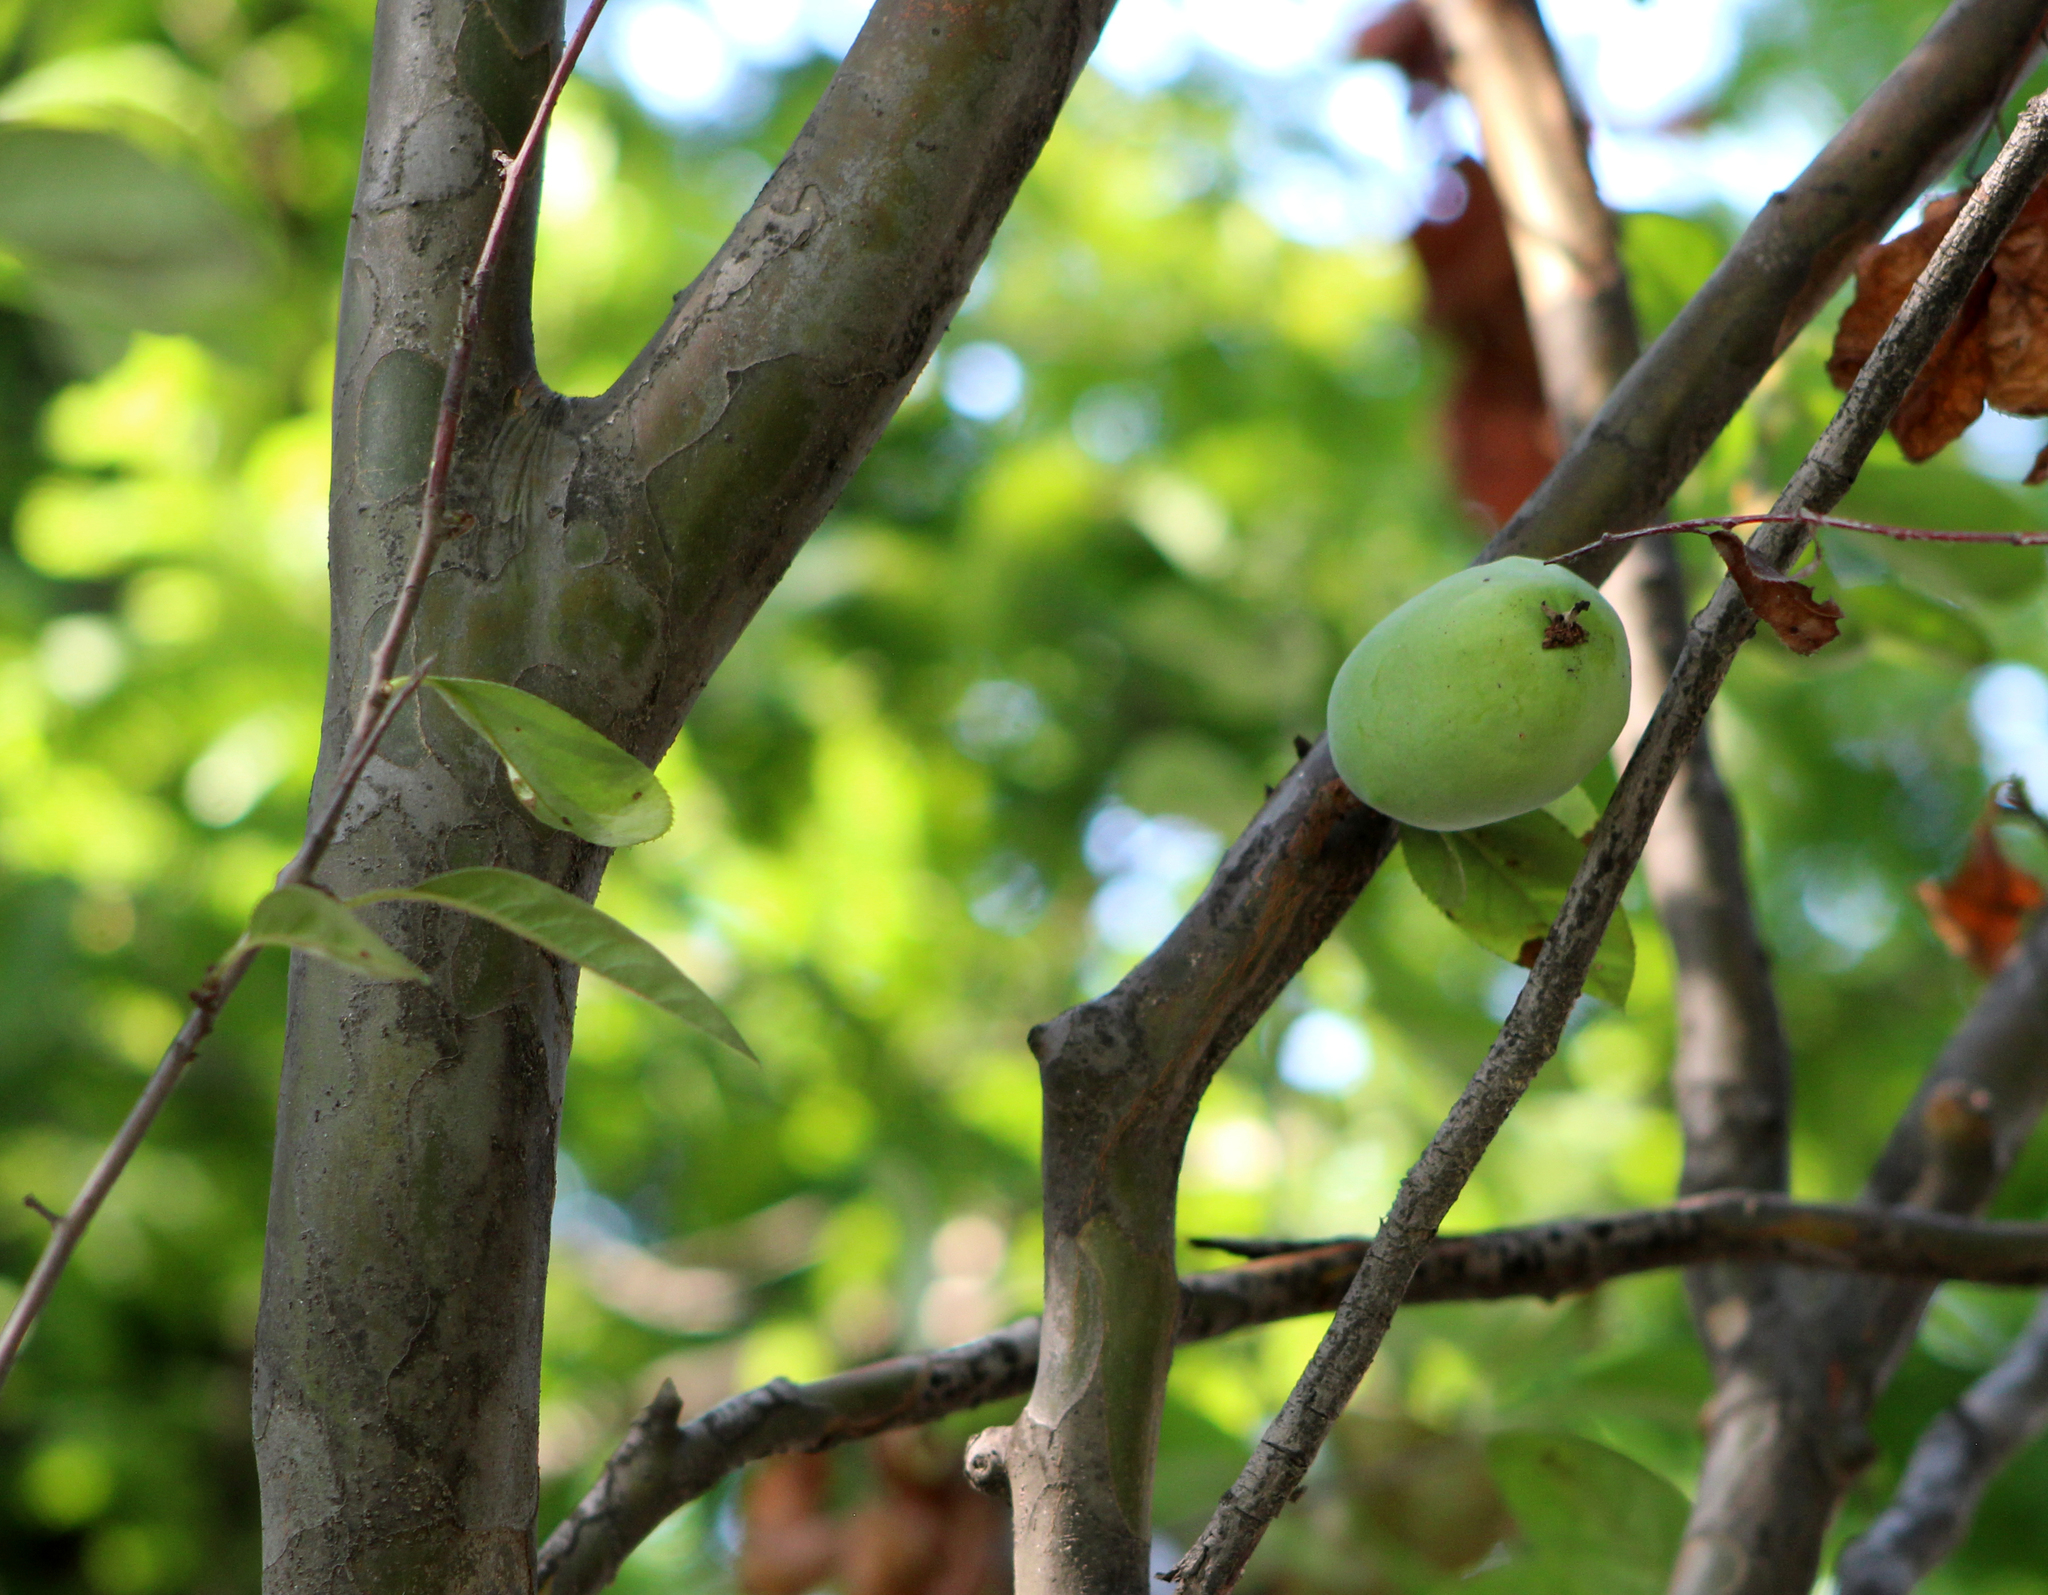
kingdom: Plantae
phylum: Tracheophyta
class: Magnoliopsida
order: Rosales
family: Rosaceae
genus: Pseudocydonia
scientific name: Pseudocydonia sinensis
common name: Chinese-quince
